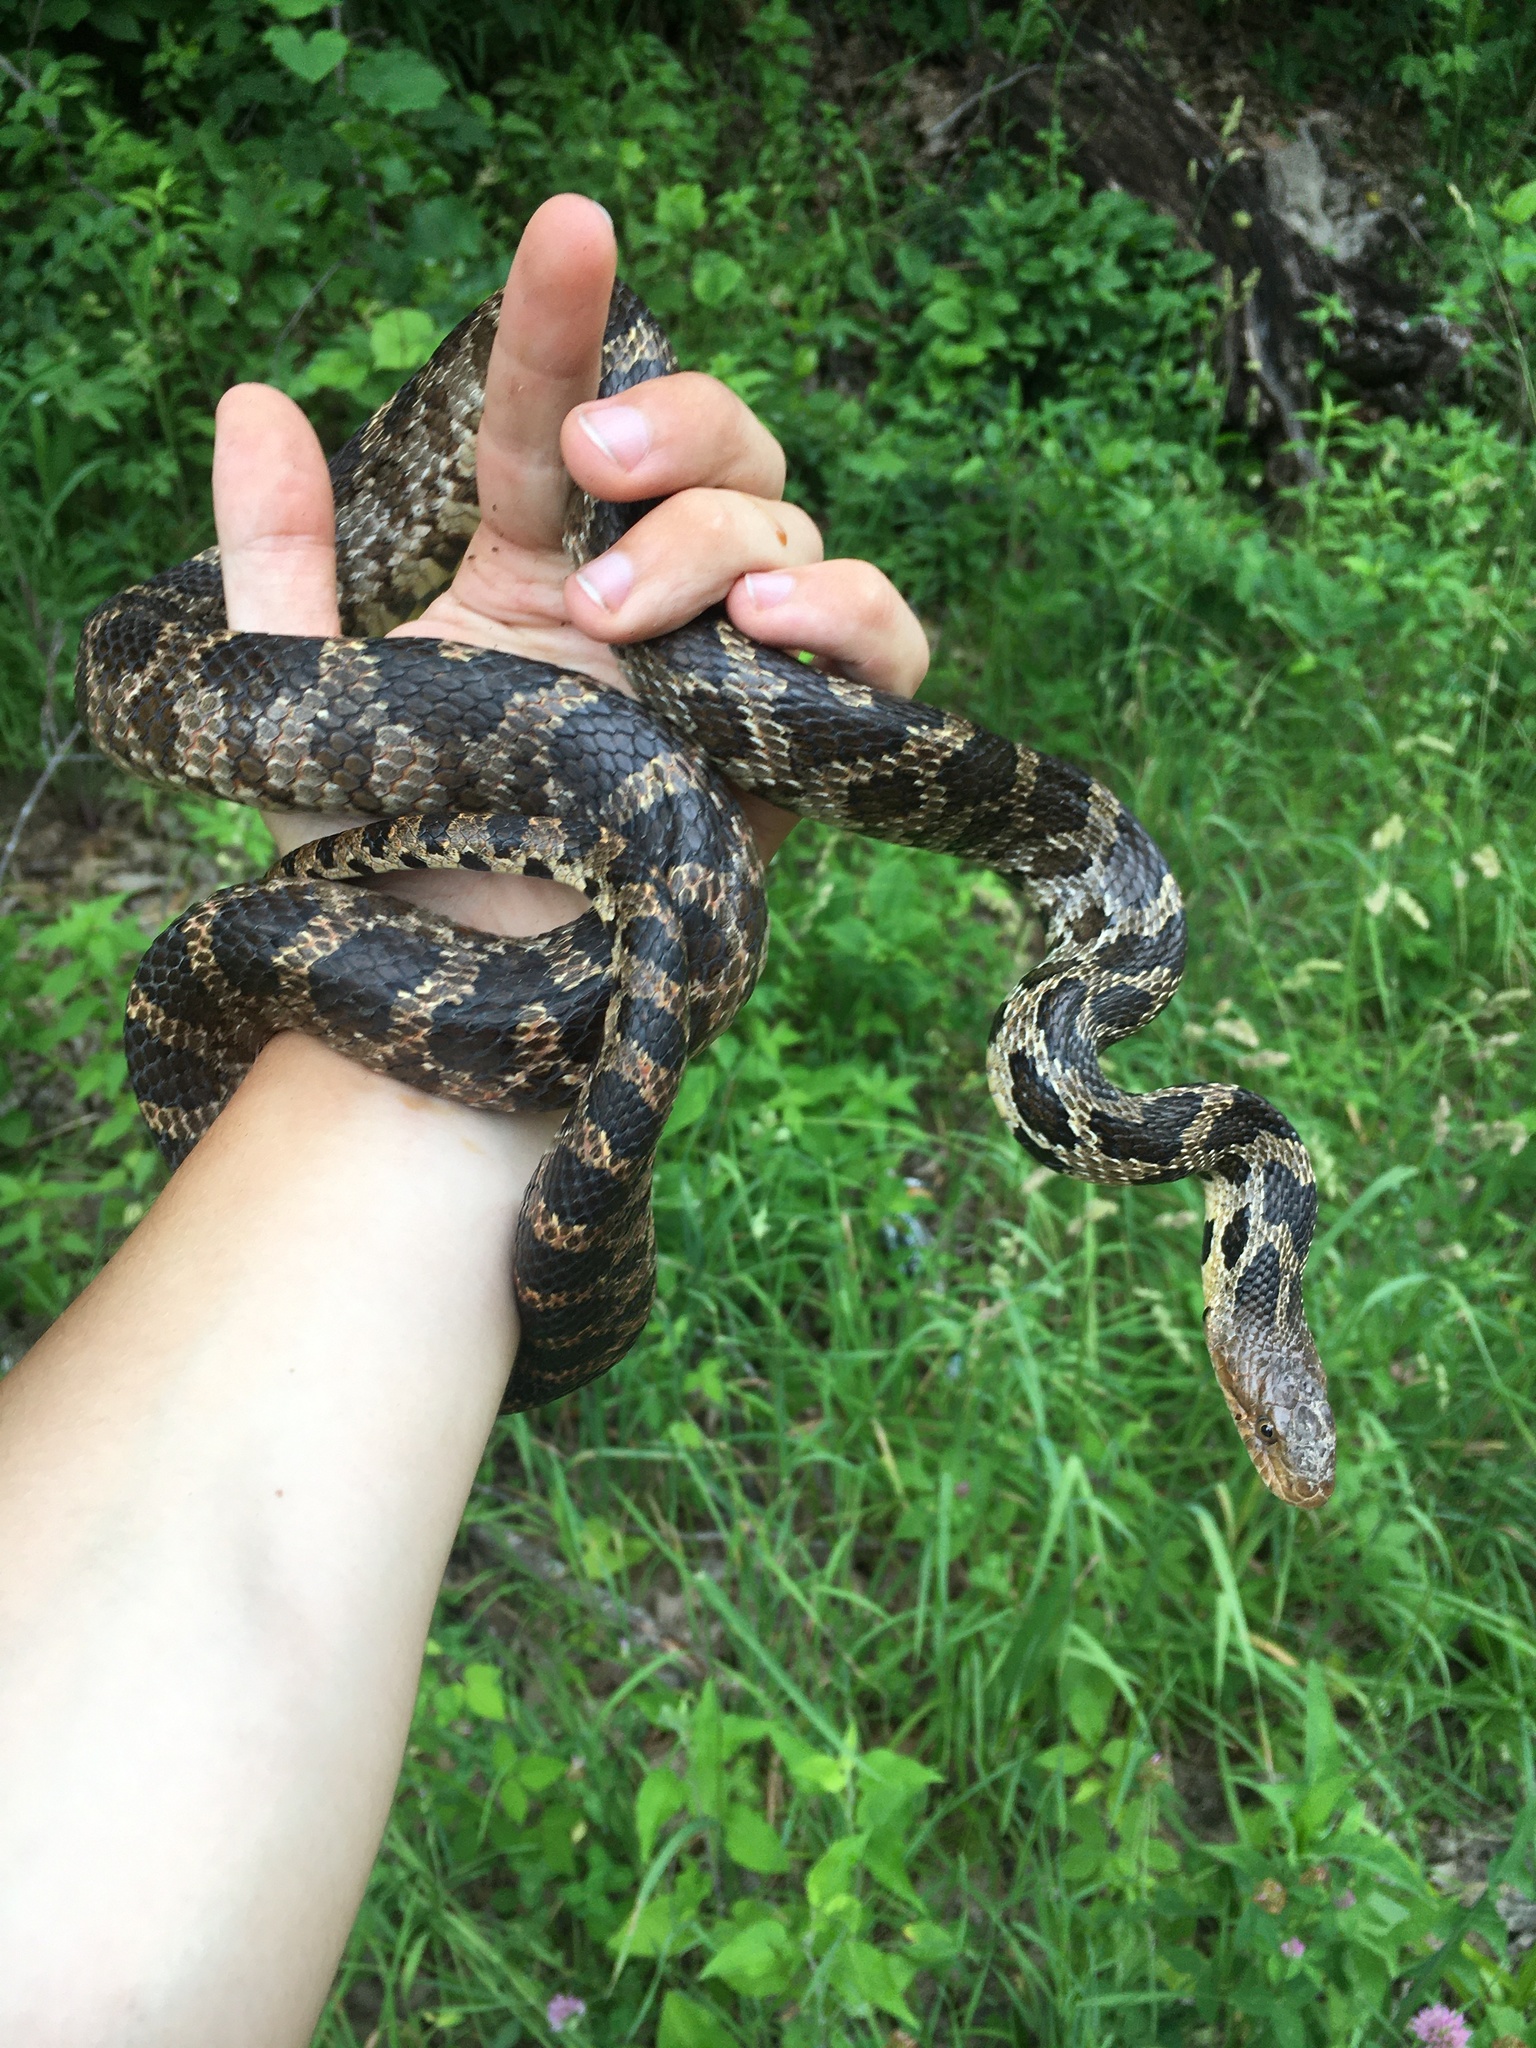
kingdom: Animalia
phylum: Chordata
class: Squamata
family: Colubridae
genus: Pantherophis
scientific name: Pantherophis ramspotti
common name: Western foxsnake
